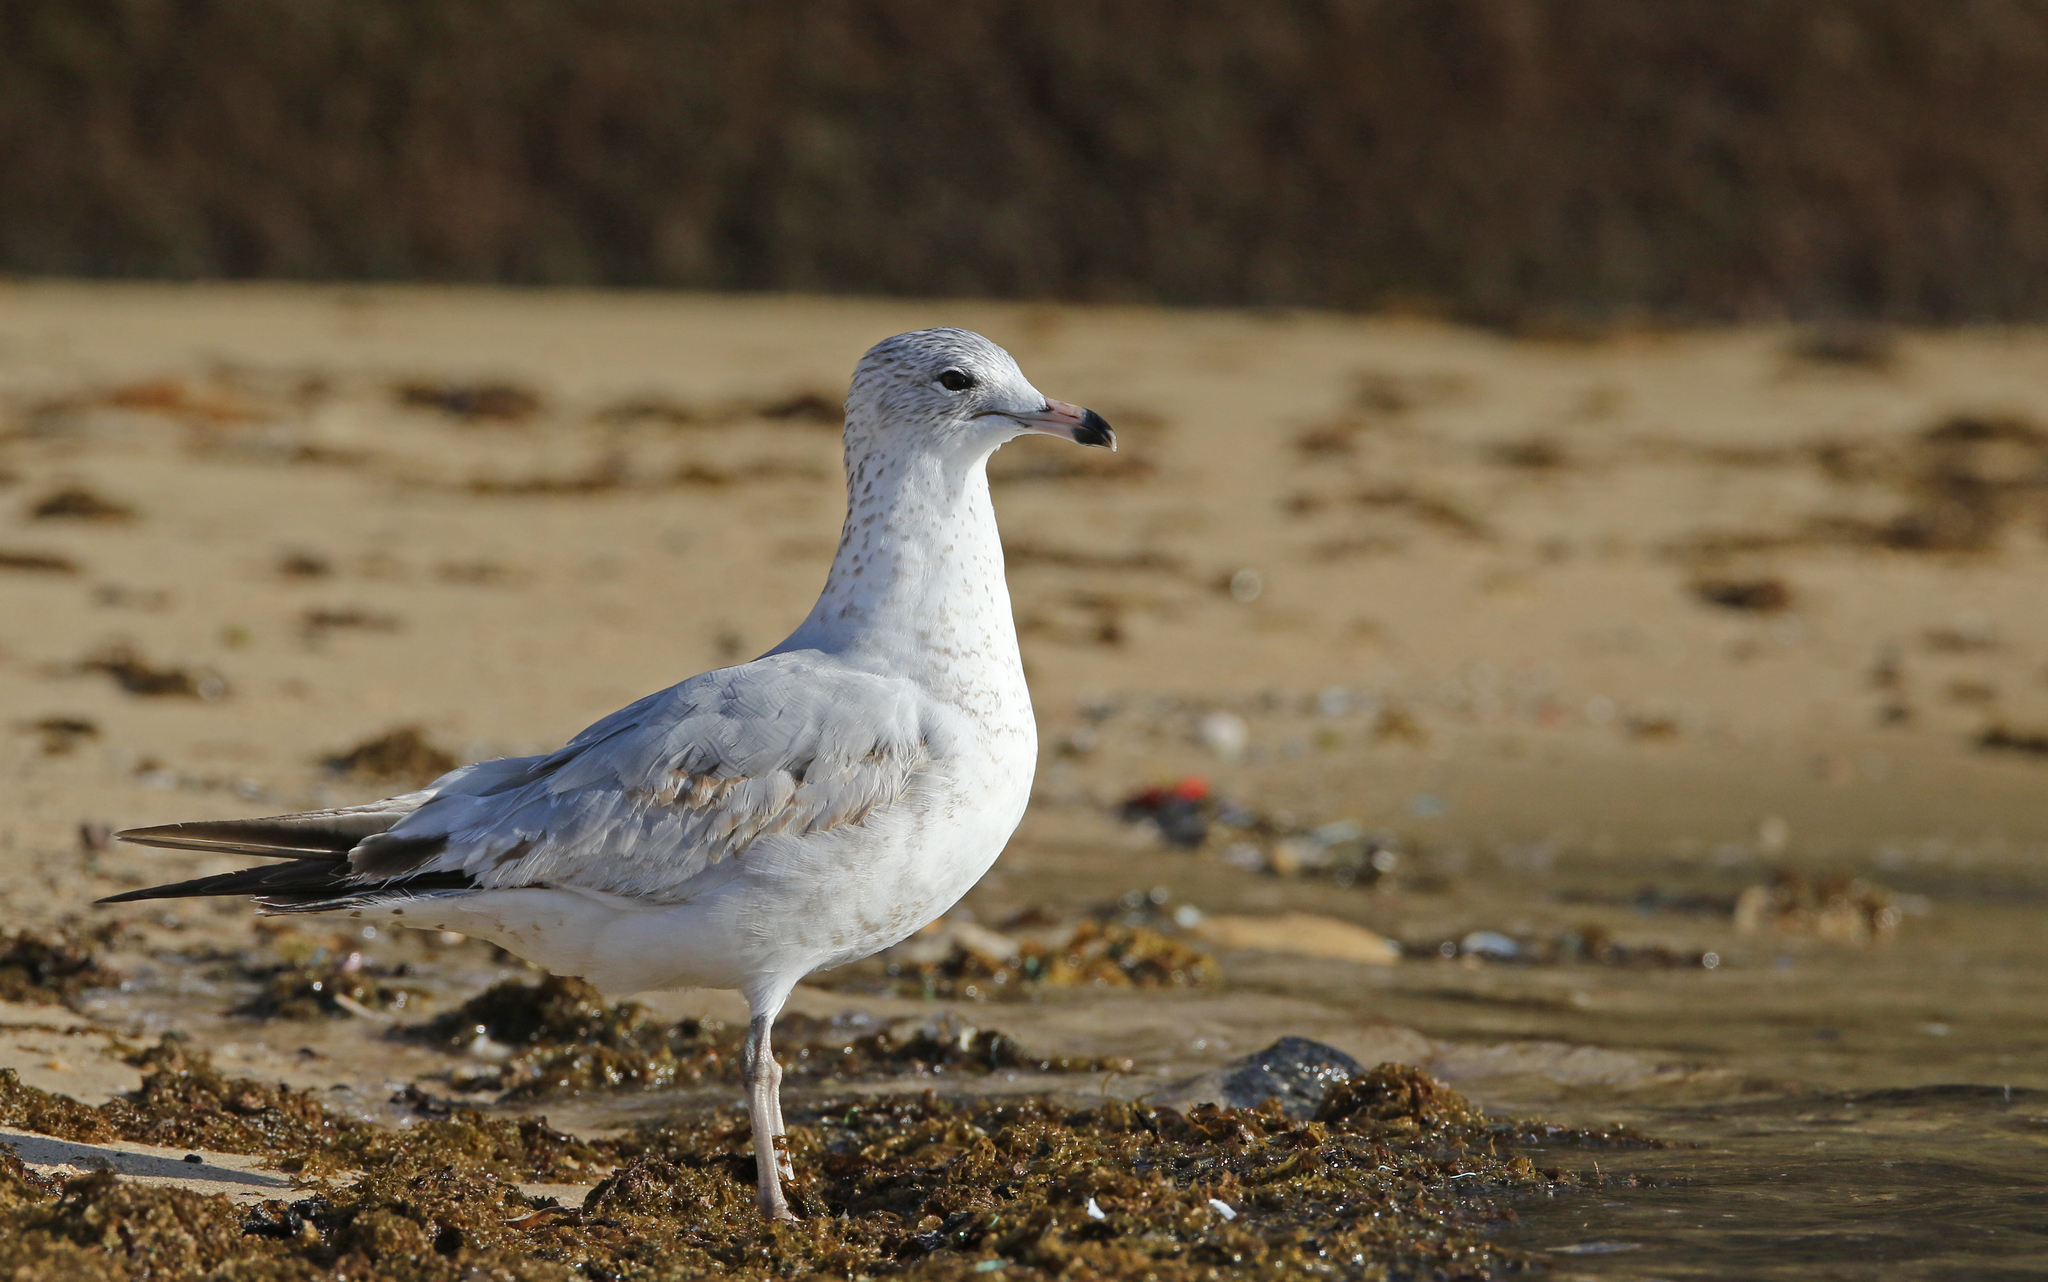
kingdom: Animalia
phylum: Chordata
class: Aves
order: Charadriiformes
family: Laridae
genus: Larus
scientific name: Larus delawarensis
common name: Ring-billed gull
